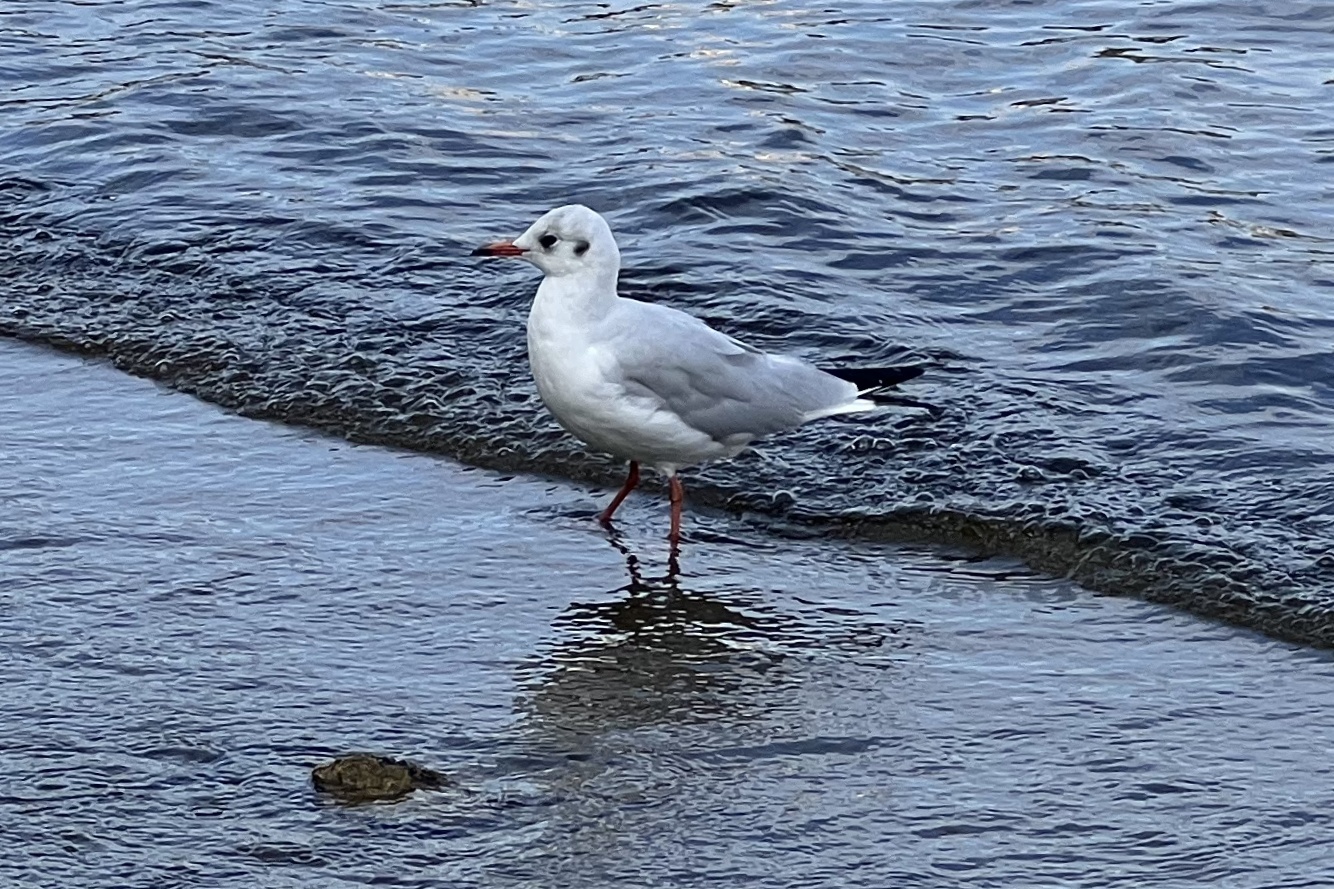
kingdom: Animalia
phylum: Chordata
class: Aves
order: Charadriiformes
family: Laridae
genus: Chroicocephalus
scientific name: Chroicocephalus ridibundus
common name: Black-headed gull
